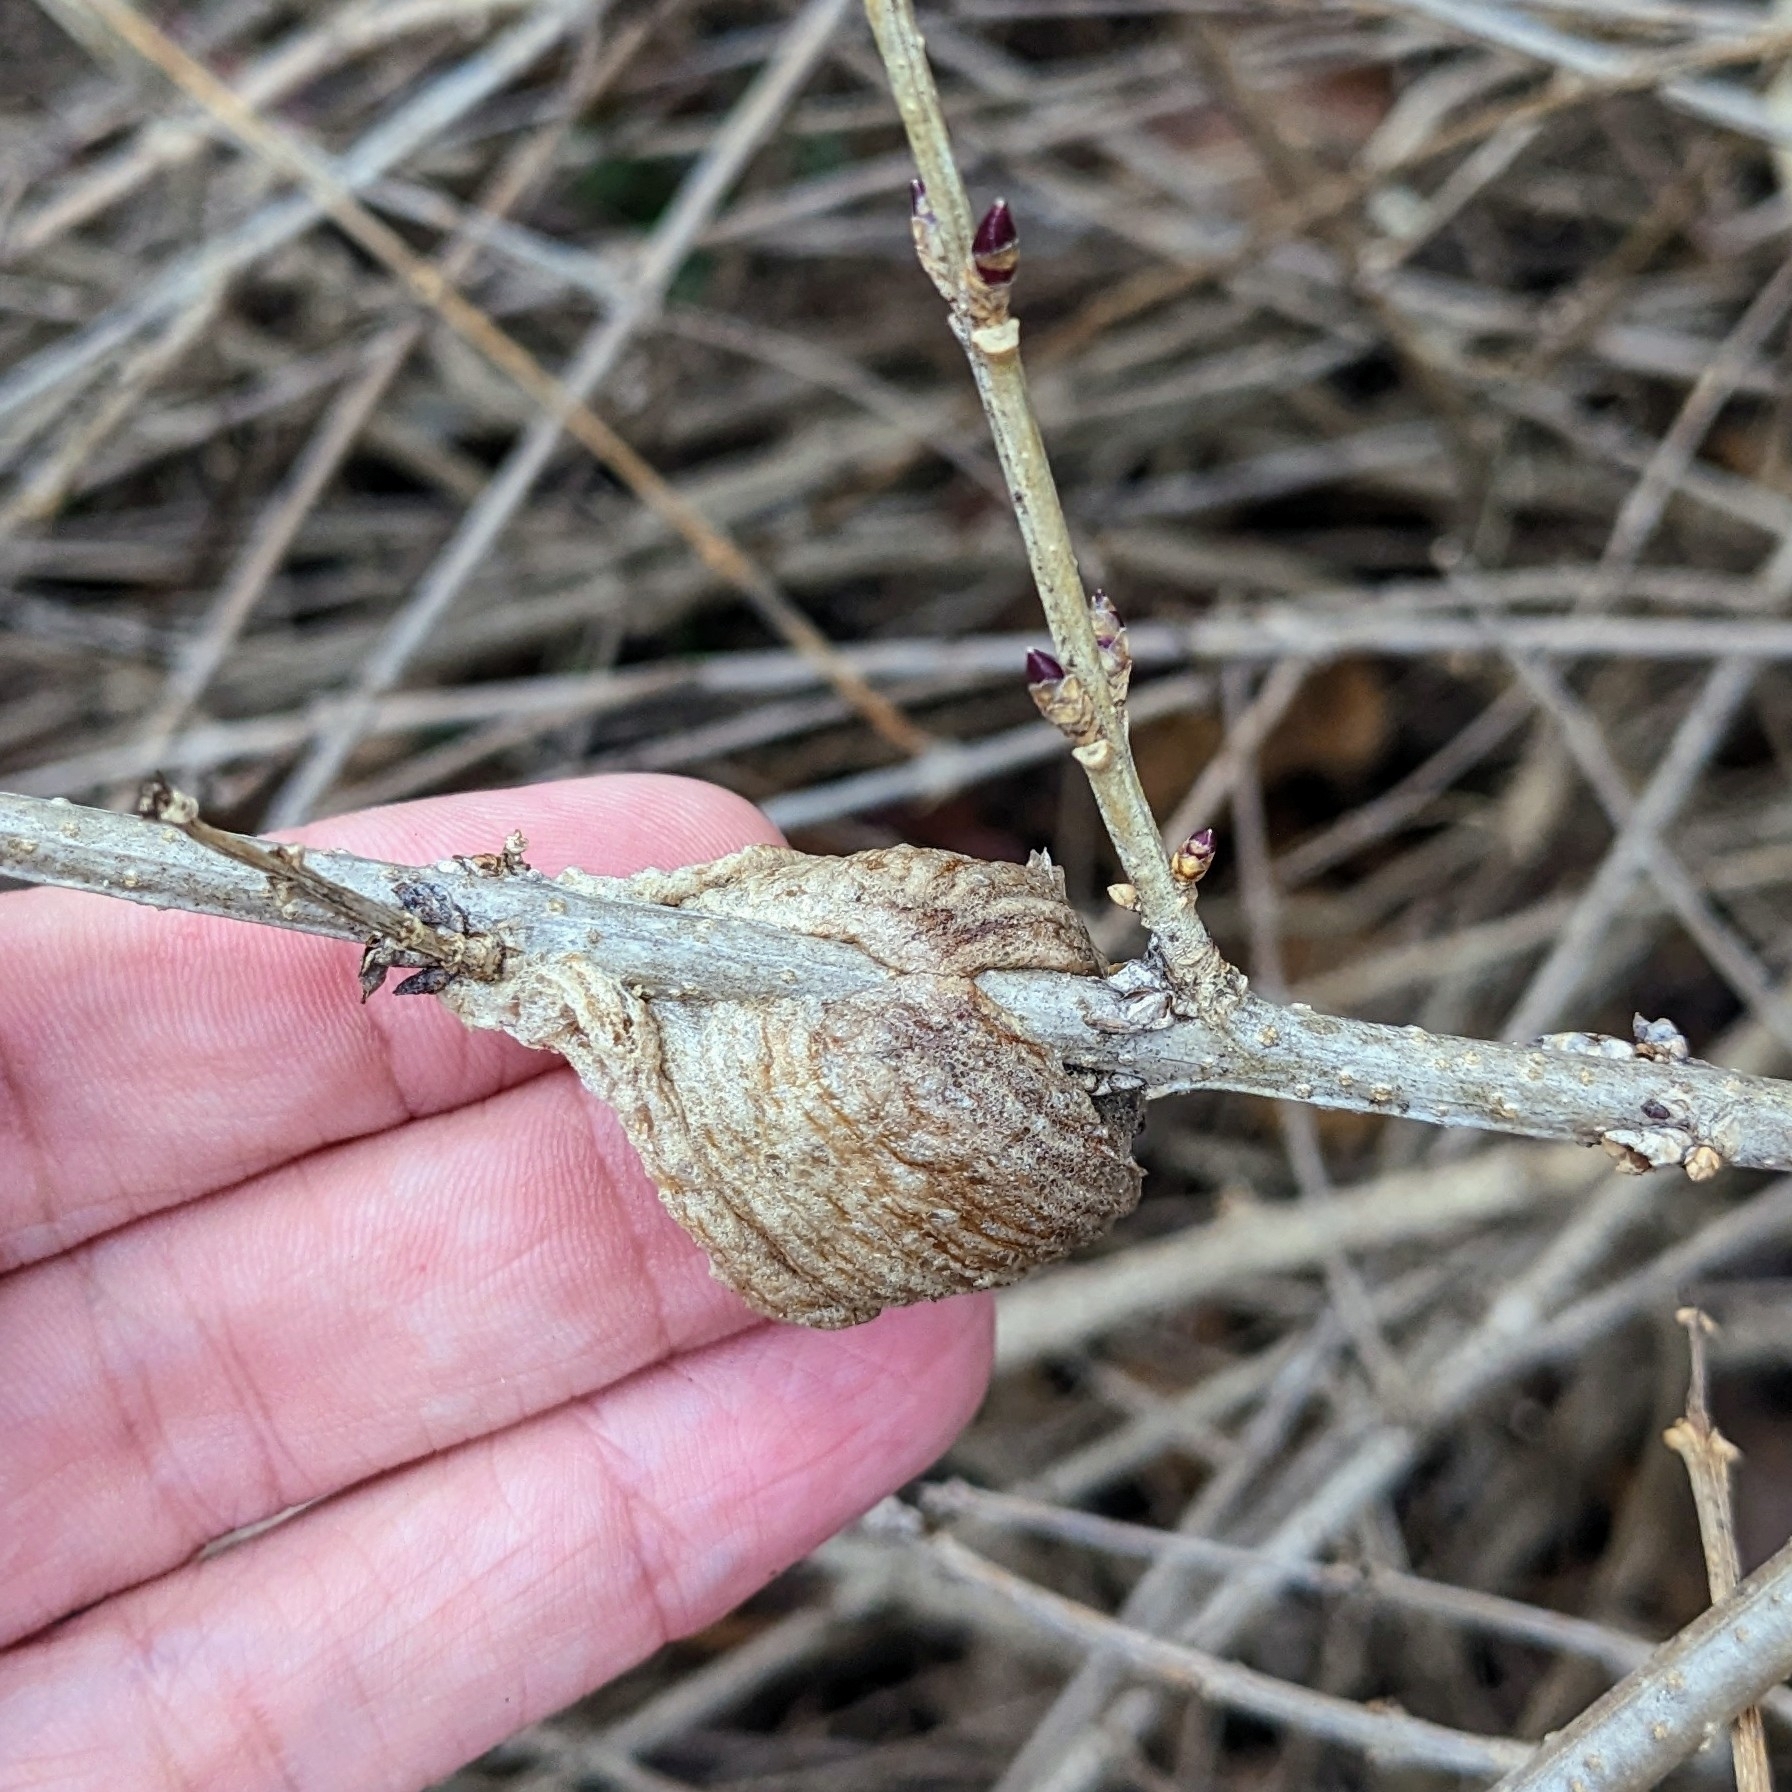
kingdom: Animalia
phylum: Arthropoda
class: Insecta
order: Mantodea
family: Mantidae
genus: Tenodera
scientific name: Tenodera sinensis
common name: Chinese mantis
